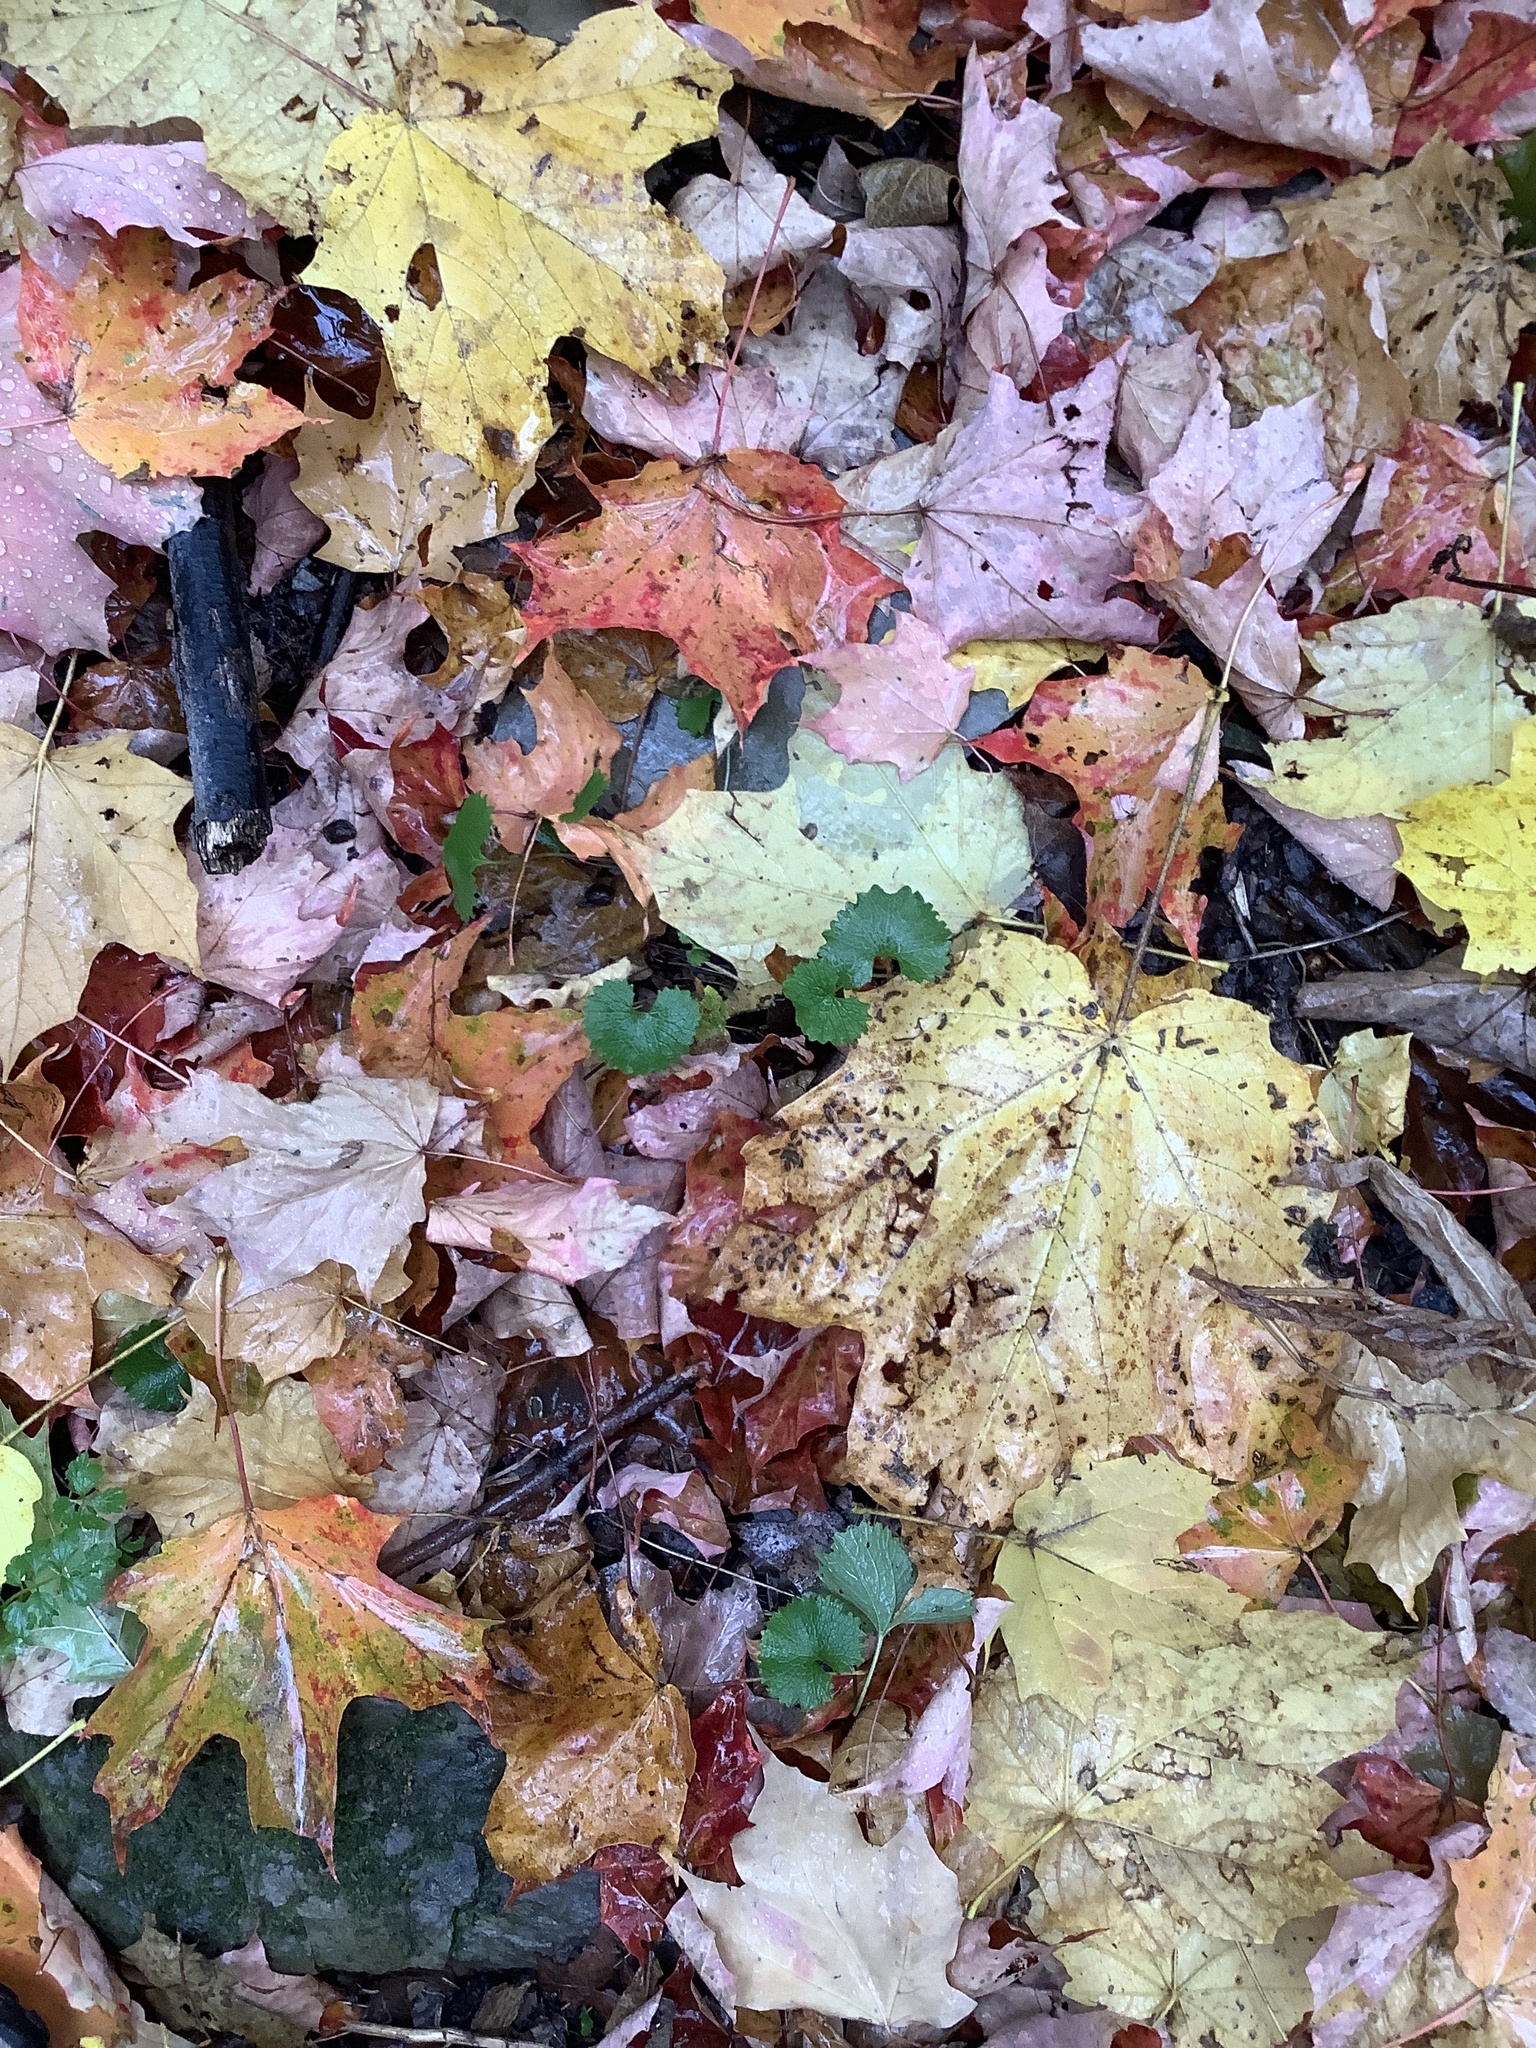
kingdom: Plantae
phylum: Tracheophyta
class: Magnoliopsida
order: Brassicales
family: Brassicaceae
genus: Alliaria
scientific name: Alliaria petiolata
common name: Garlic mustard
